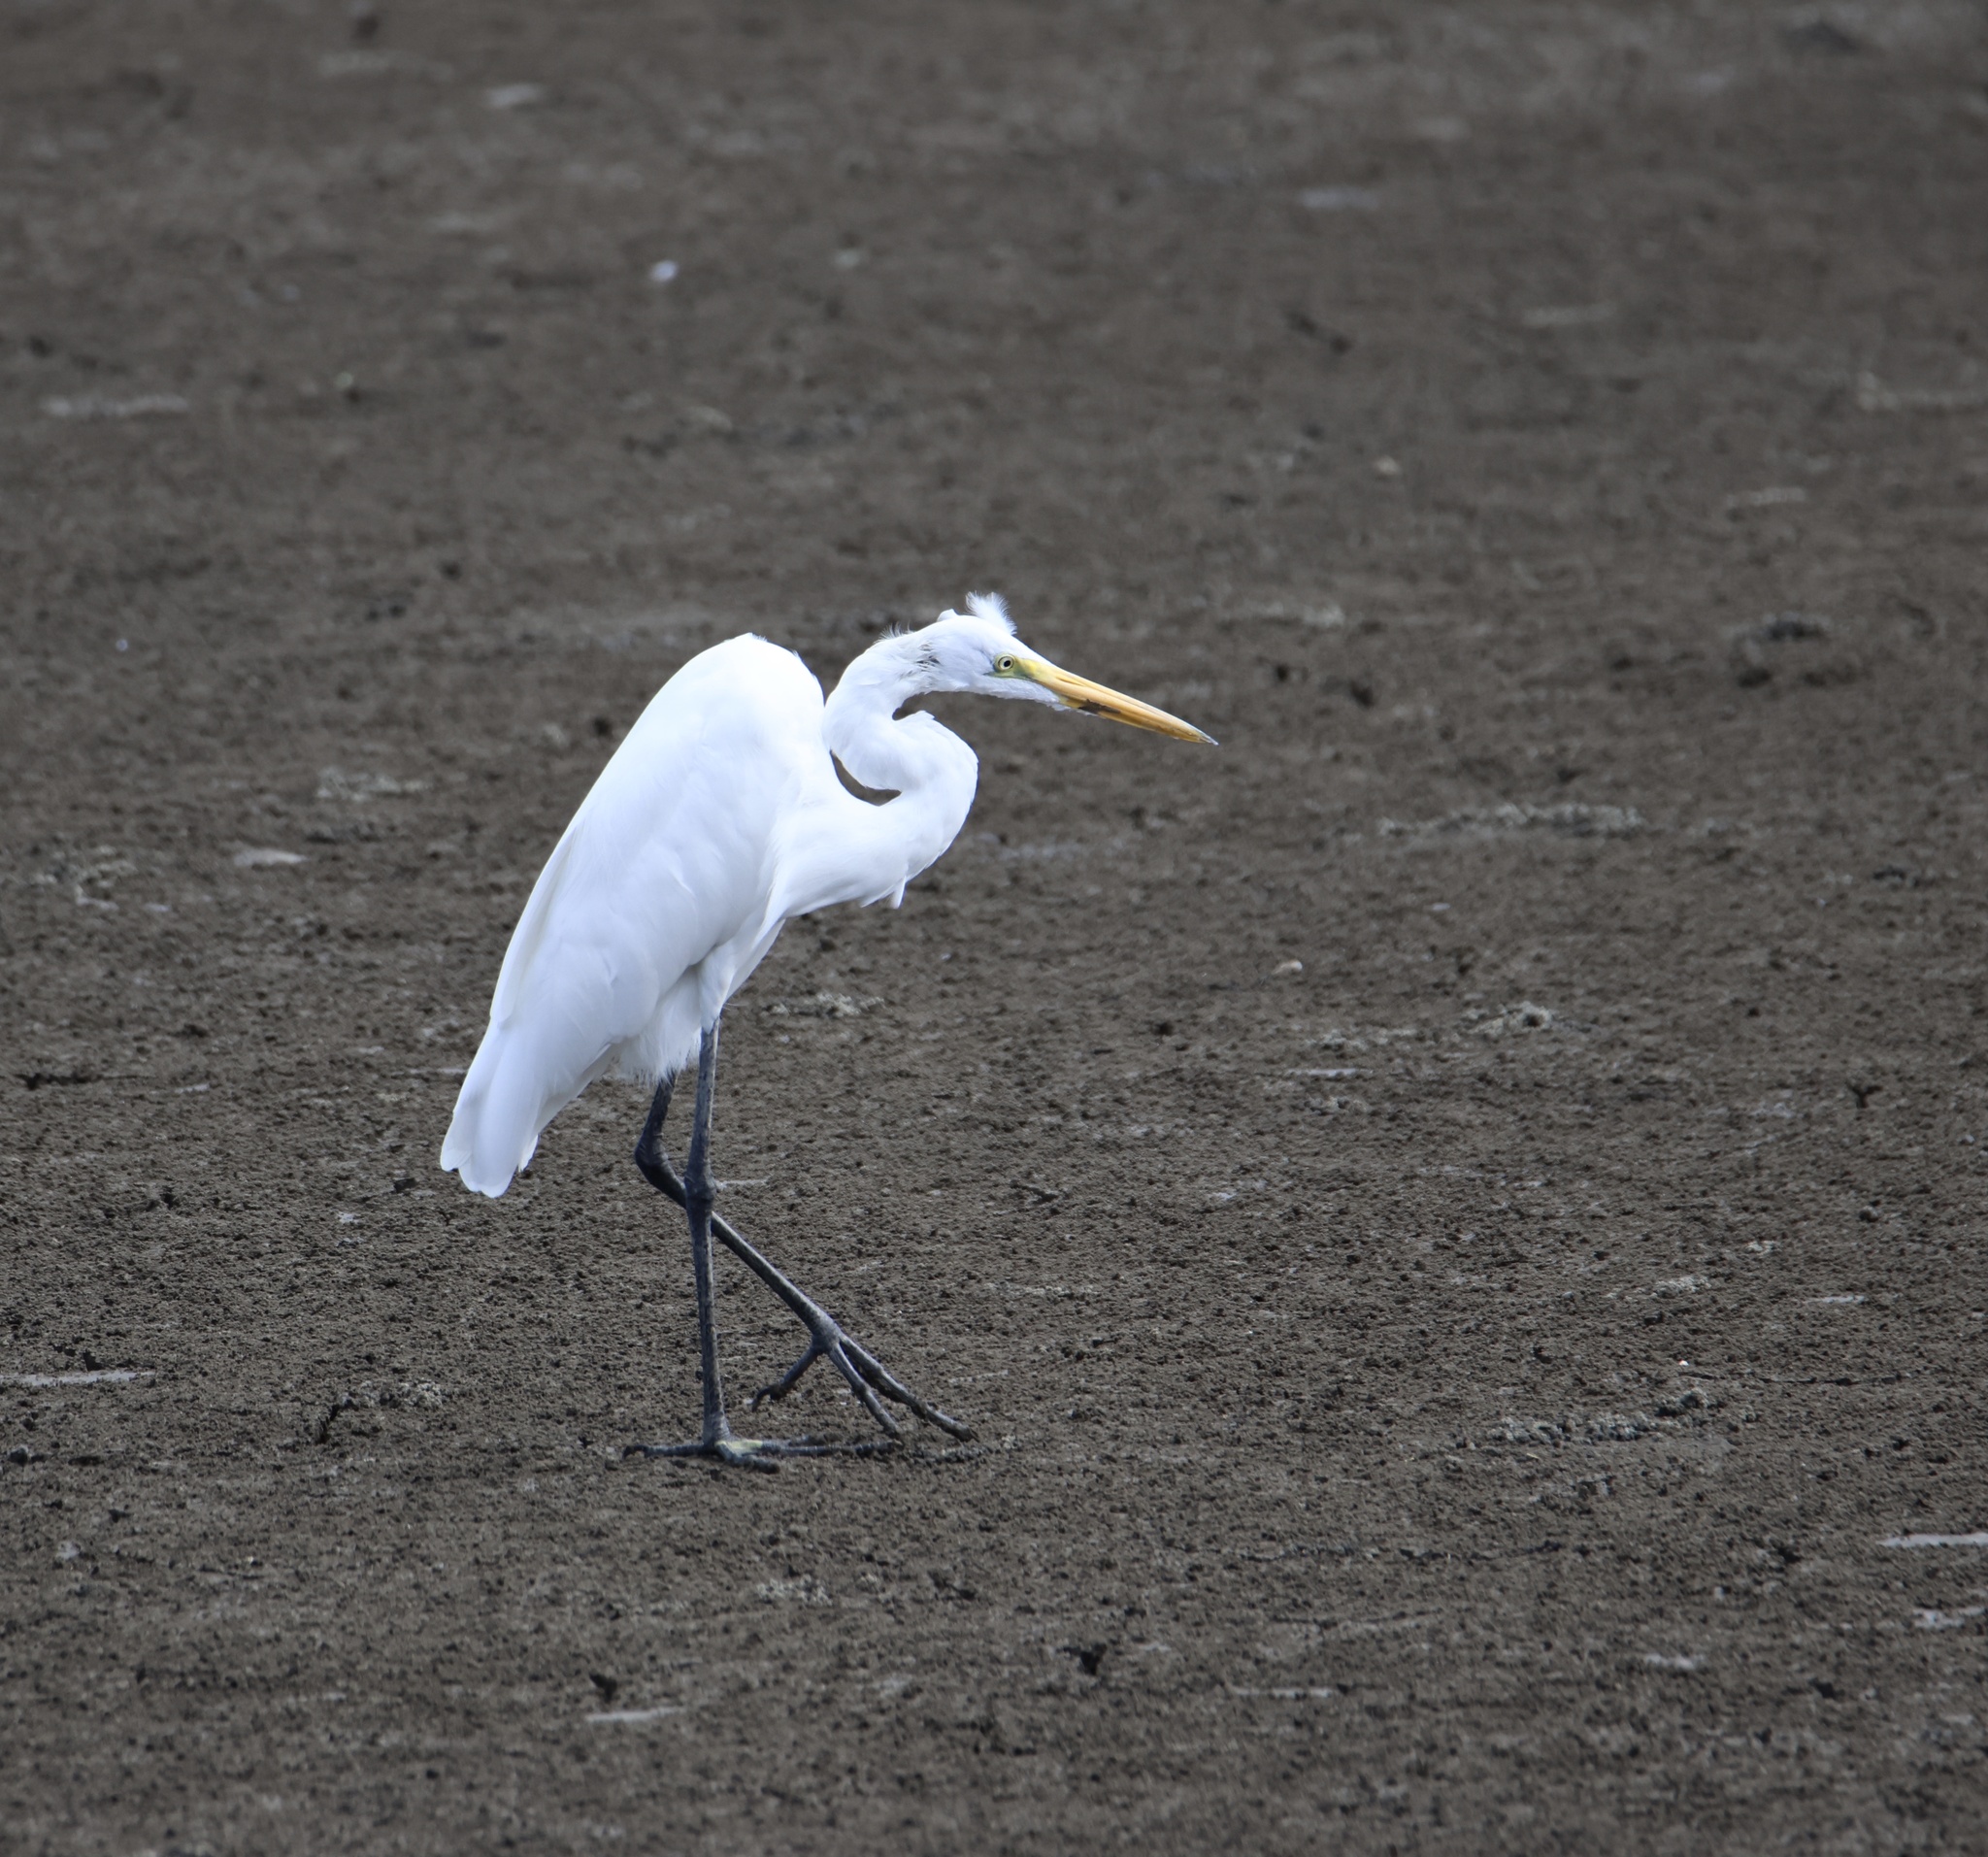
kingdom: Animalia
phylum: Chordata
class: Aves
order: Pelecaniformes
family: Ardeidae
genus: Ardea
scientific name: Ardea alba
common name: Great egret
